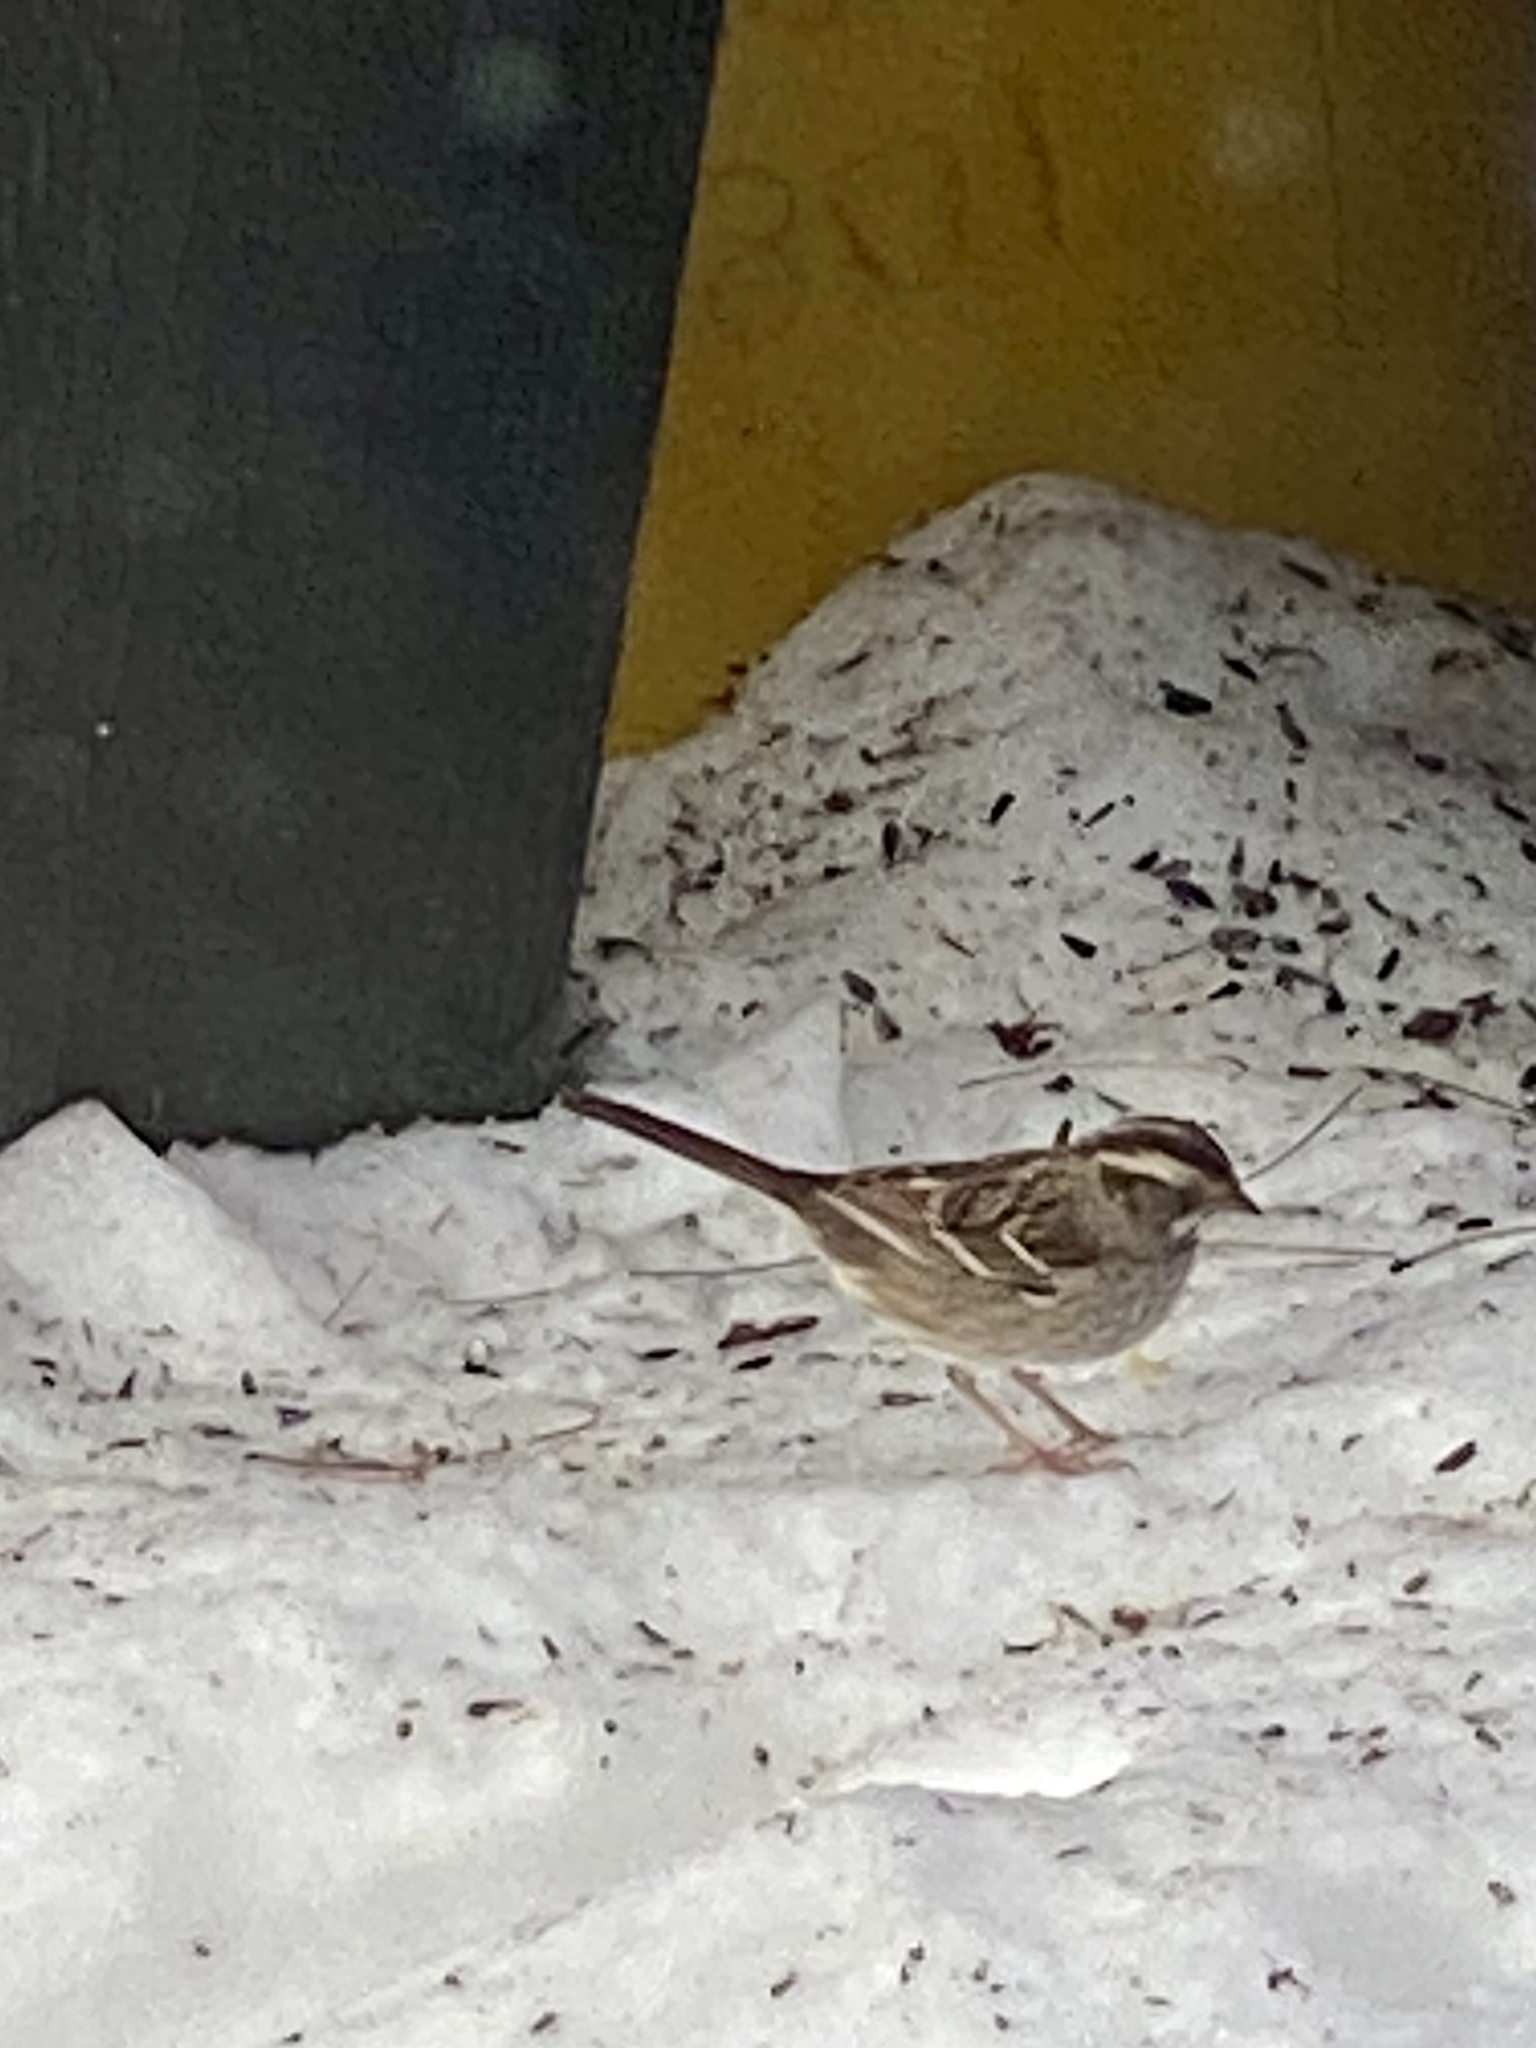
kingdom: Animalia
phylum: Chordata
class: Aves
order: Passeriformes
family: Passerellidae
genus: Zonotrichia
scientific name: Zonotrichia albicollis
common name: White-throated sparrow
